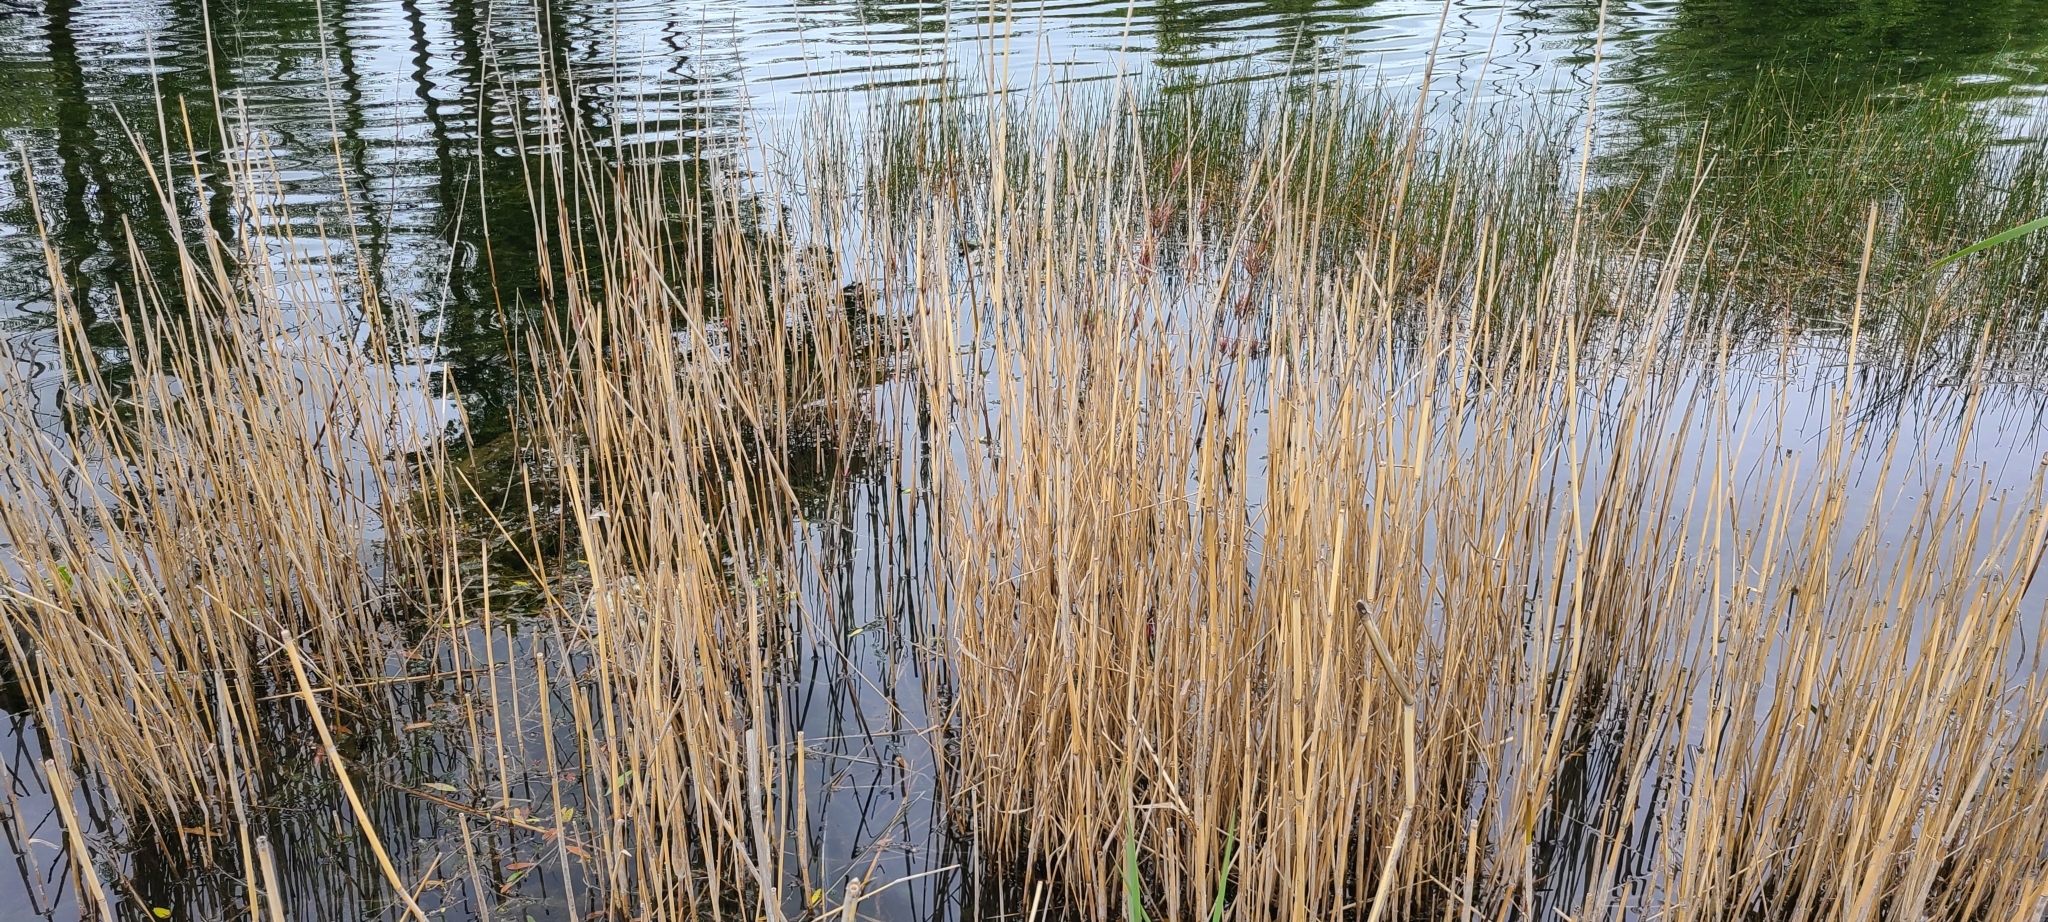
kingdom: Plantae
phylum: Tracheophyta
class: Liliopsida
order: Poales
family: Poaceae
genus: Phragmites
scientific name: Phragmites australis
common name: Common reed
